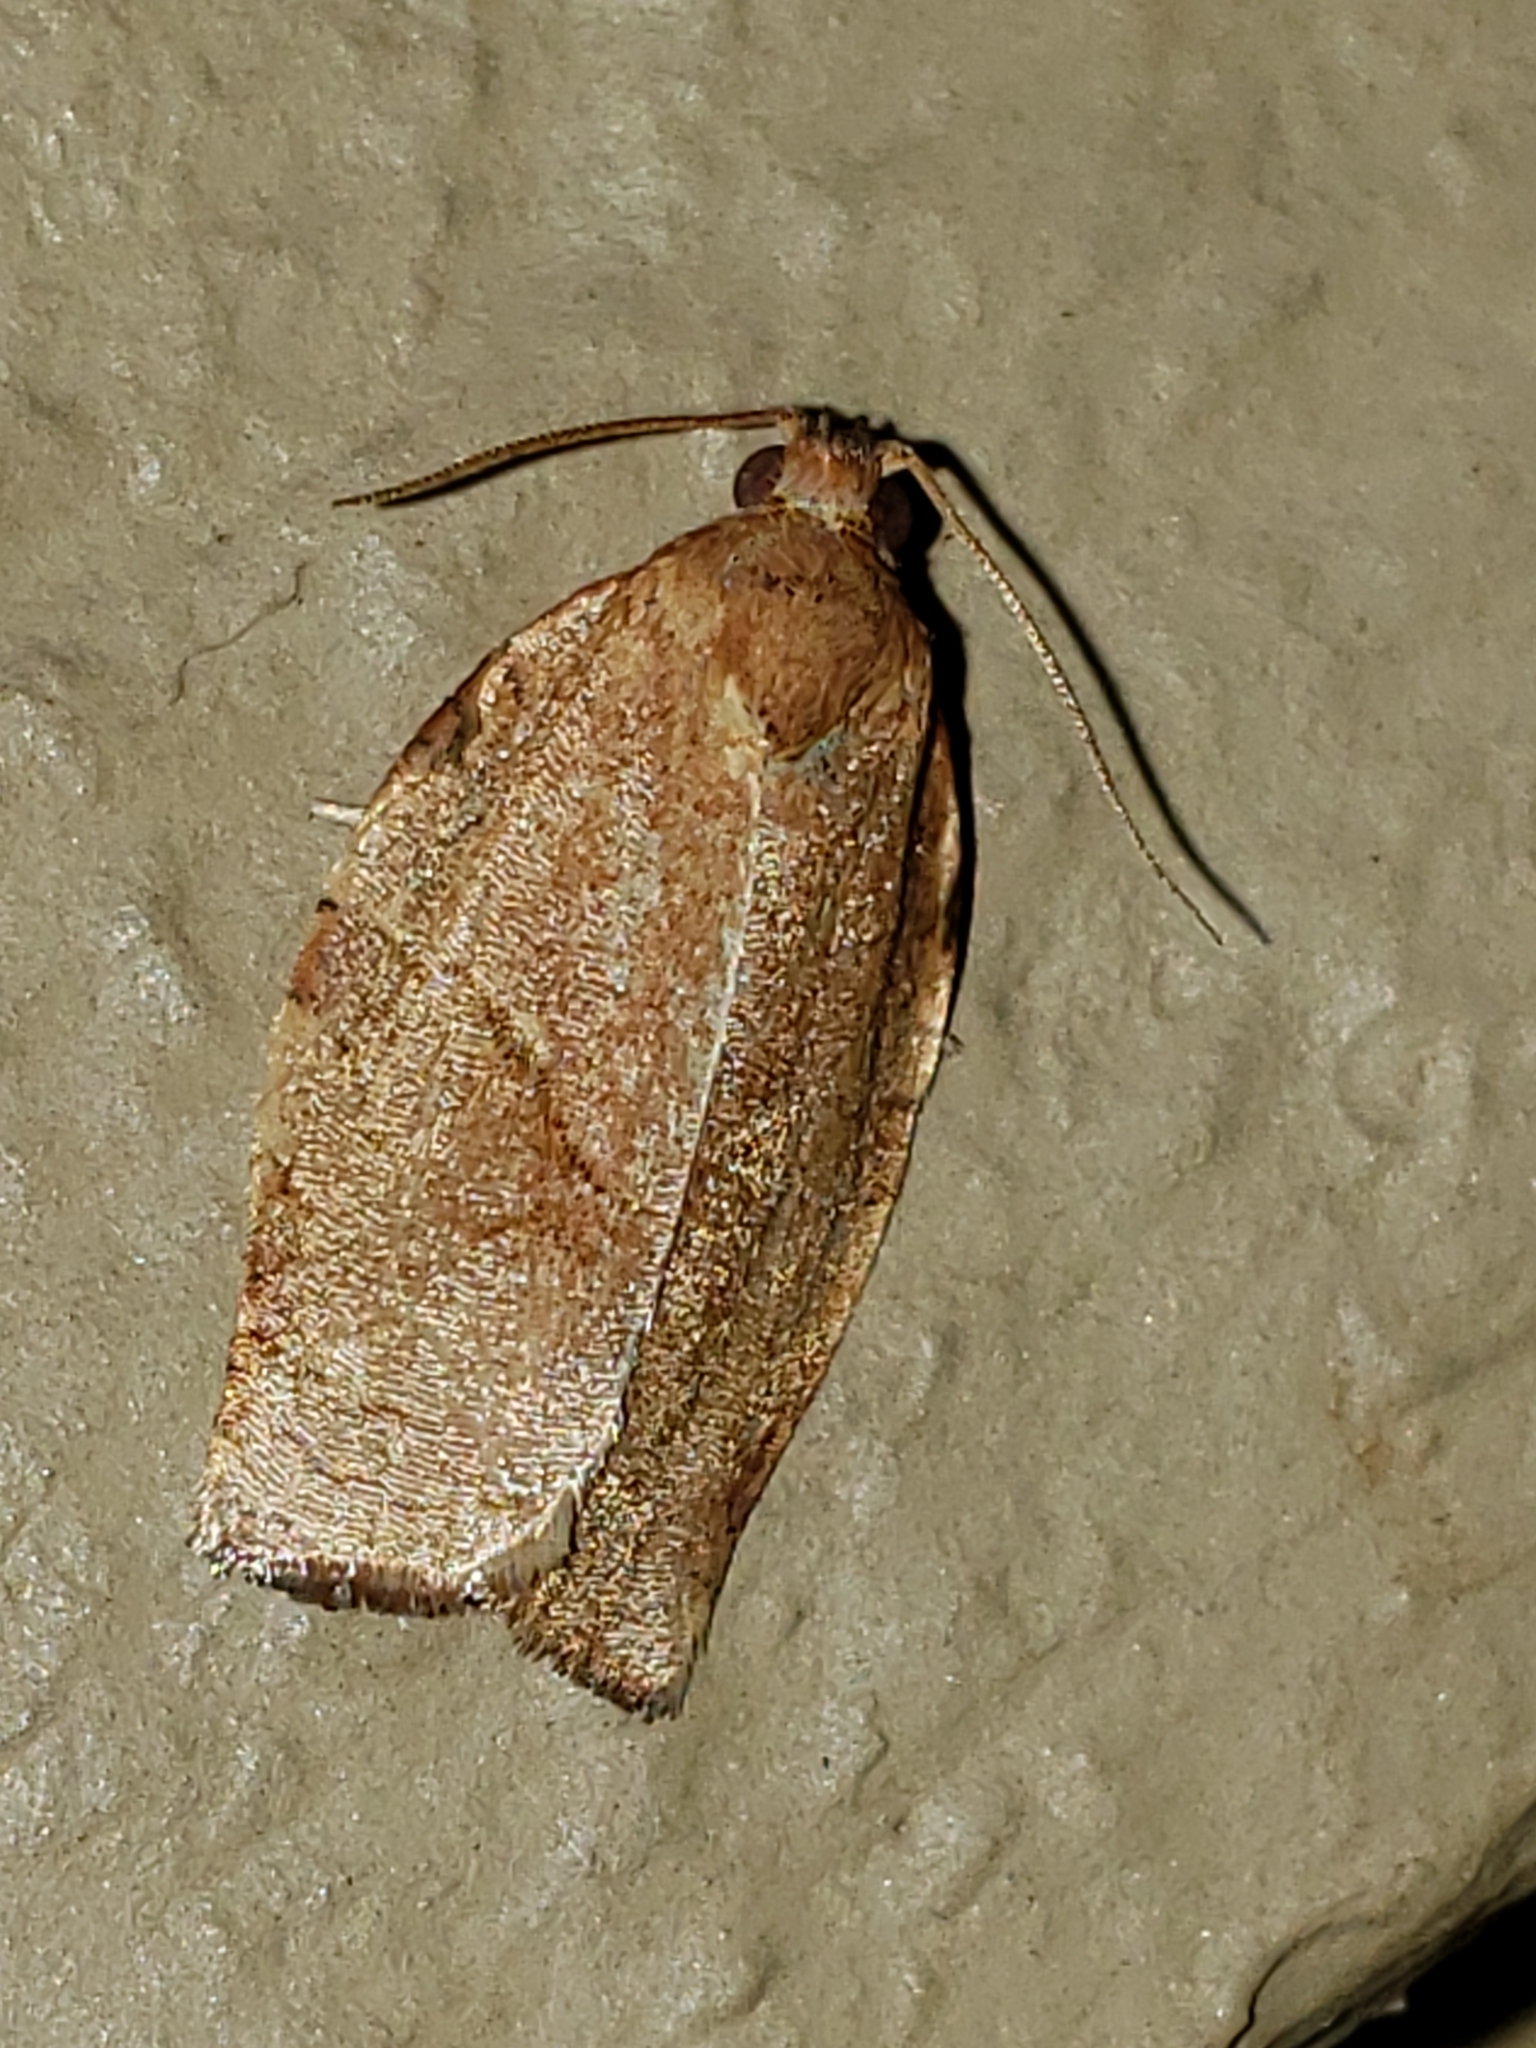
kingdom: Animalia
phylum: Arthropoda
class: Insecta
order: Lepidoptera
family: Tortricidae
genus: Choristoneura
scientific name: Choristoneura rosaceana
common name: Oblique-banded leafroller moth
